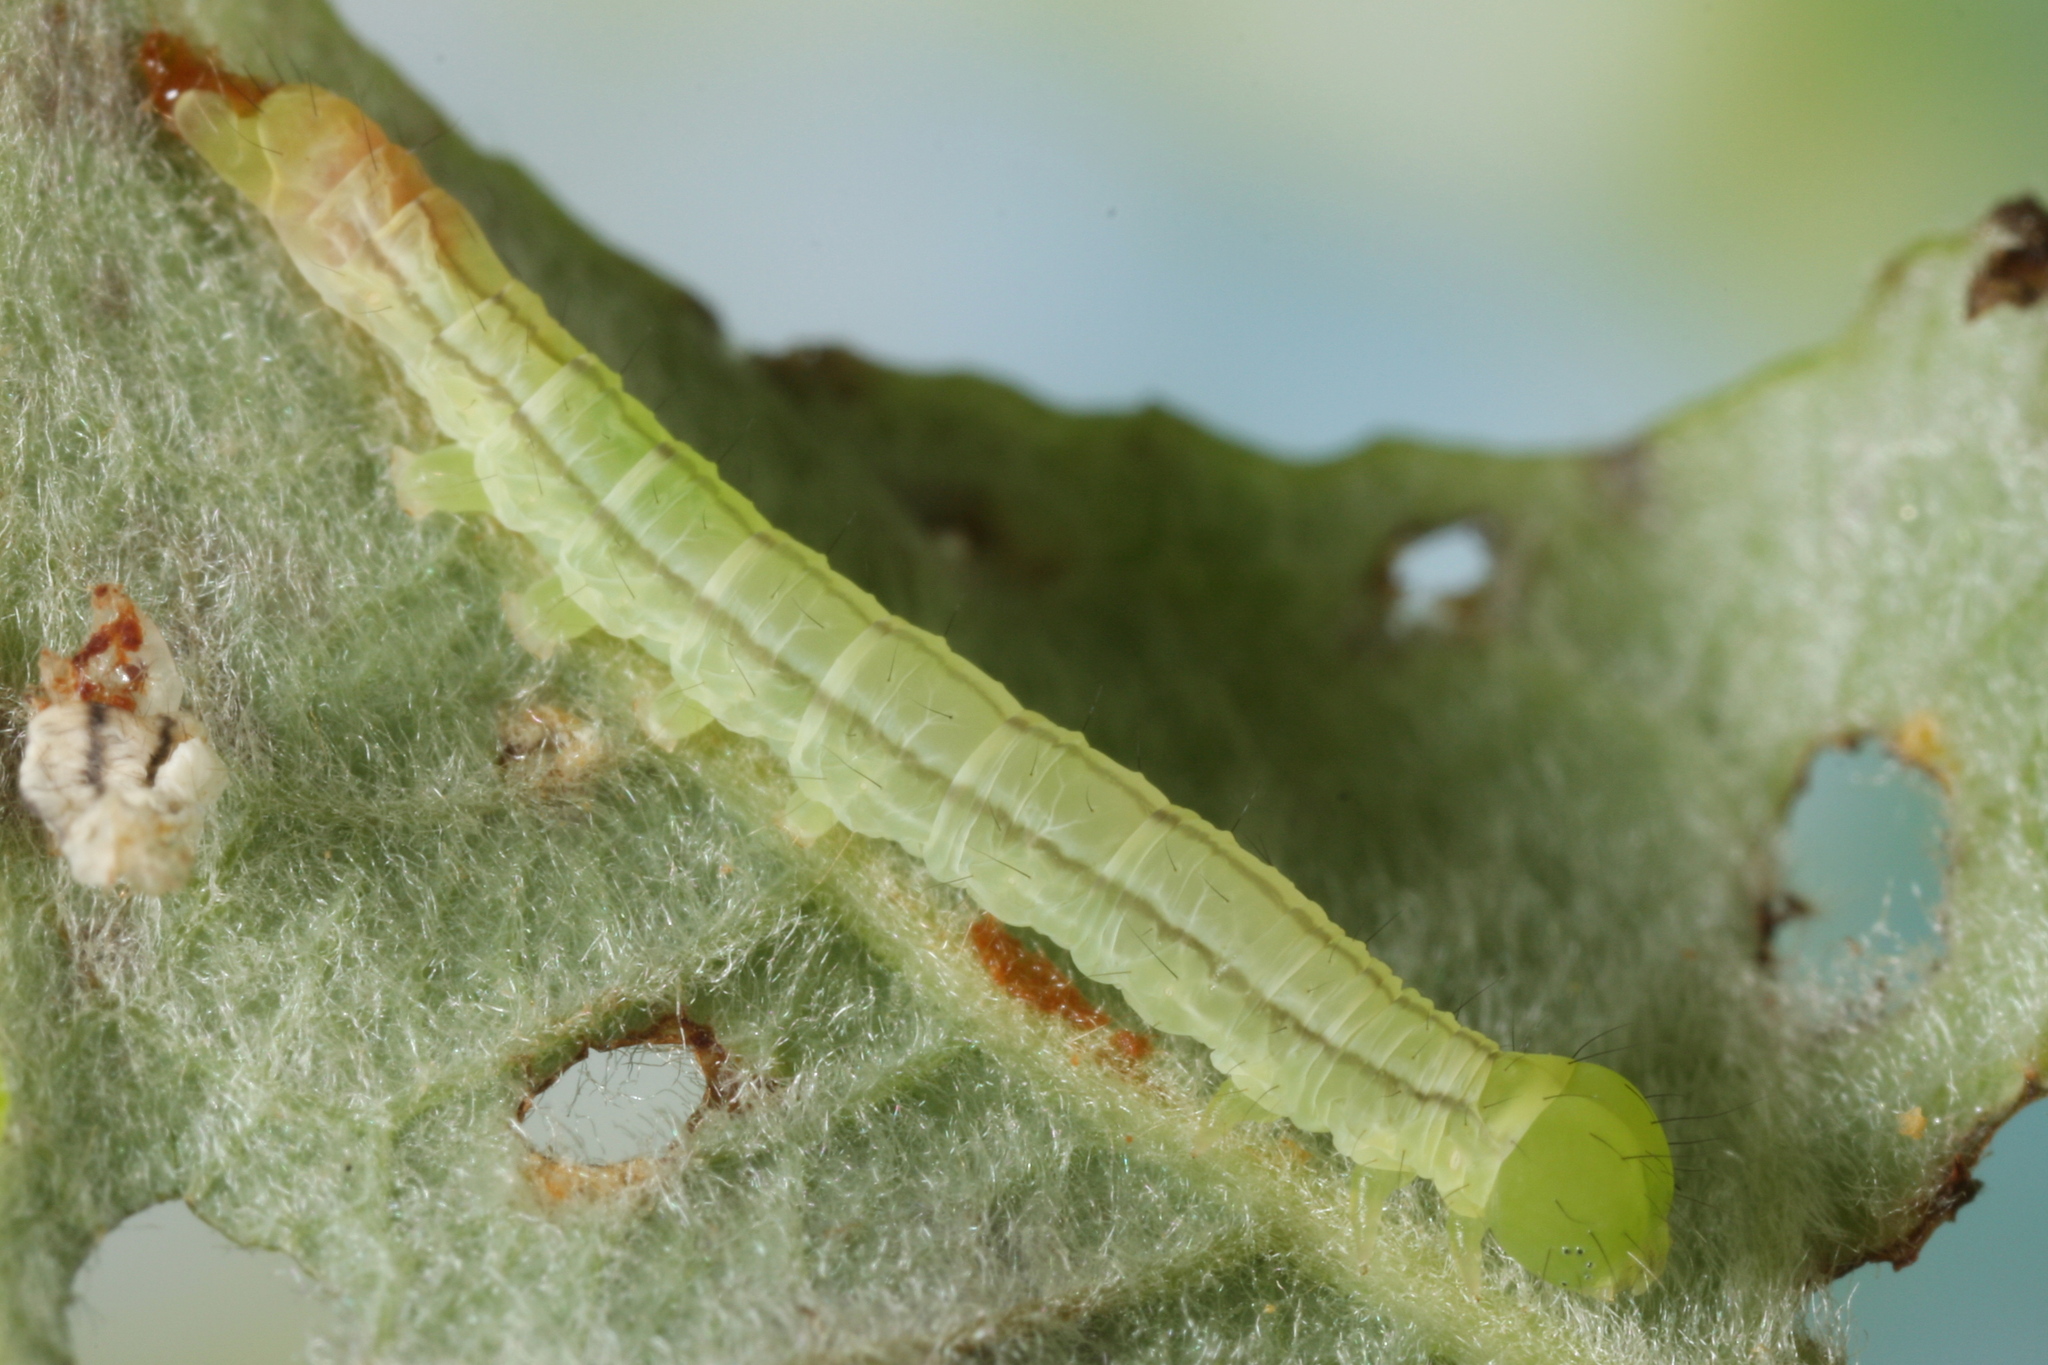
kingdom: Animalia
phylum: Arthropoda
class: Insecta
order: Lepidoptera
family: Erebidae
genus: Scoliopteryx
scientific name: Scoliopteryx libatrix
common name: Herald
